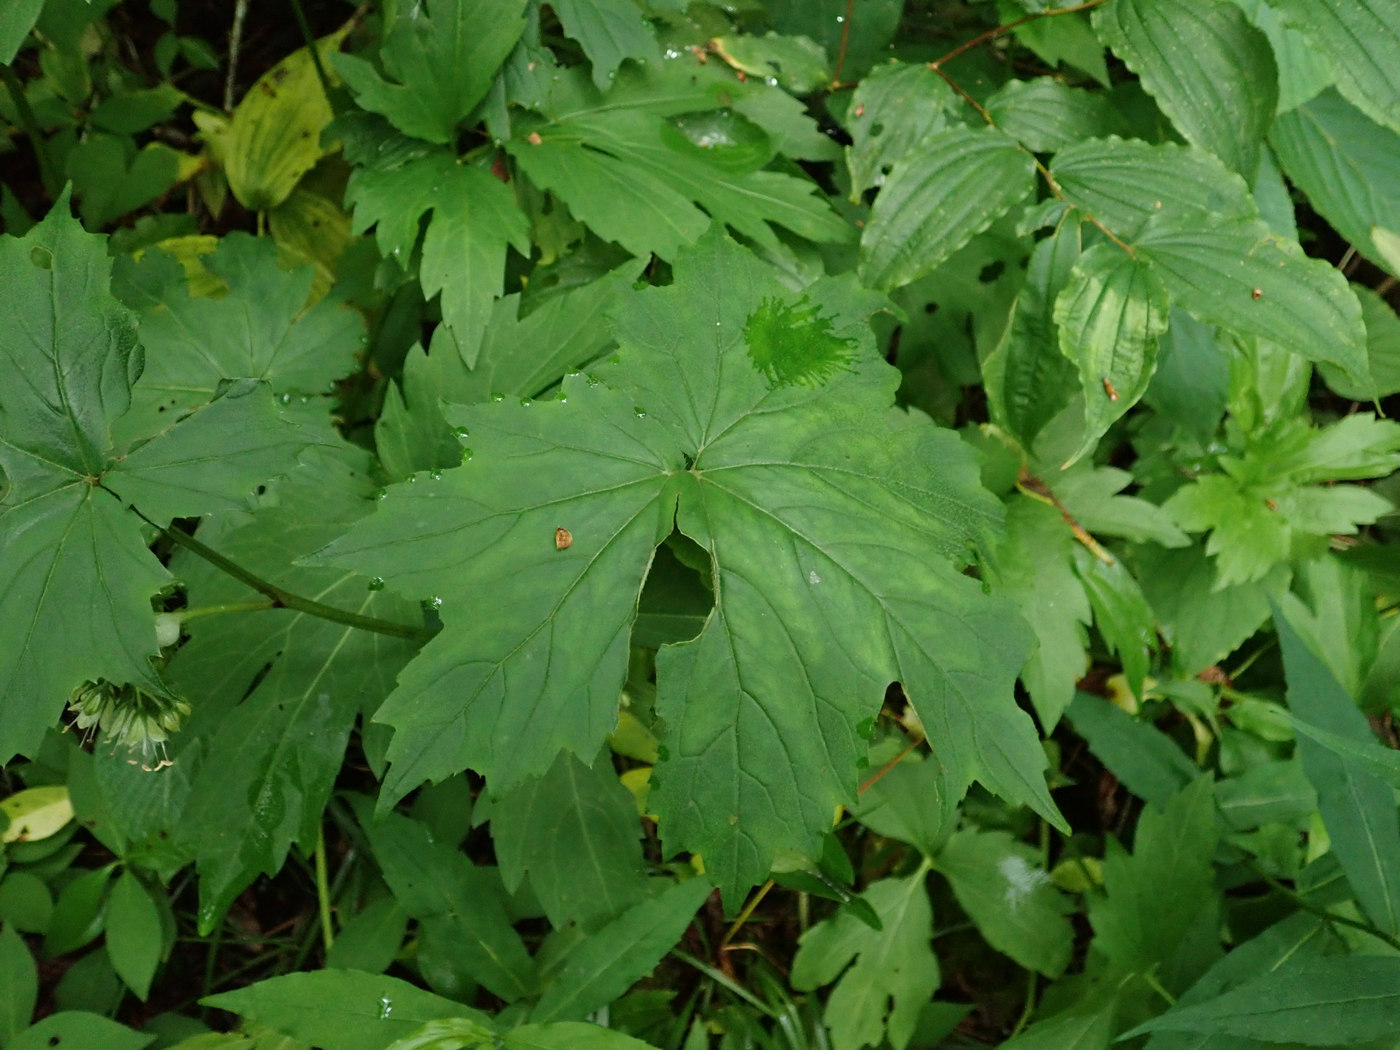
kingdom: Plantae
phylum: Tracheophyta
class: Magnoliopsida
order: Boraginales
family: Hydrophyllaceae
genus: Hydrophyllum
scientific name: Hydrophyllum canadense
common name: Canada waterleaf
